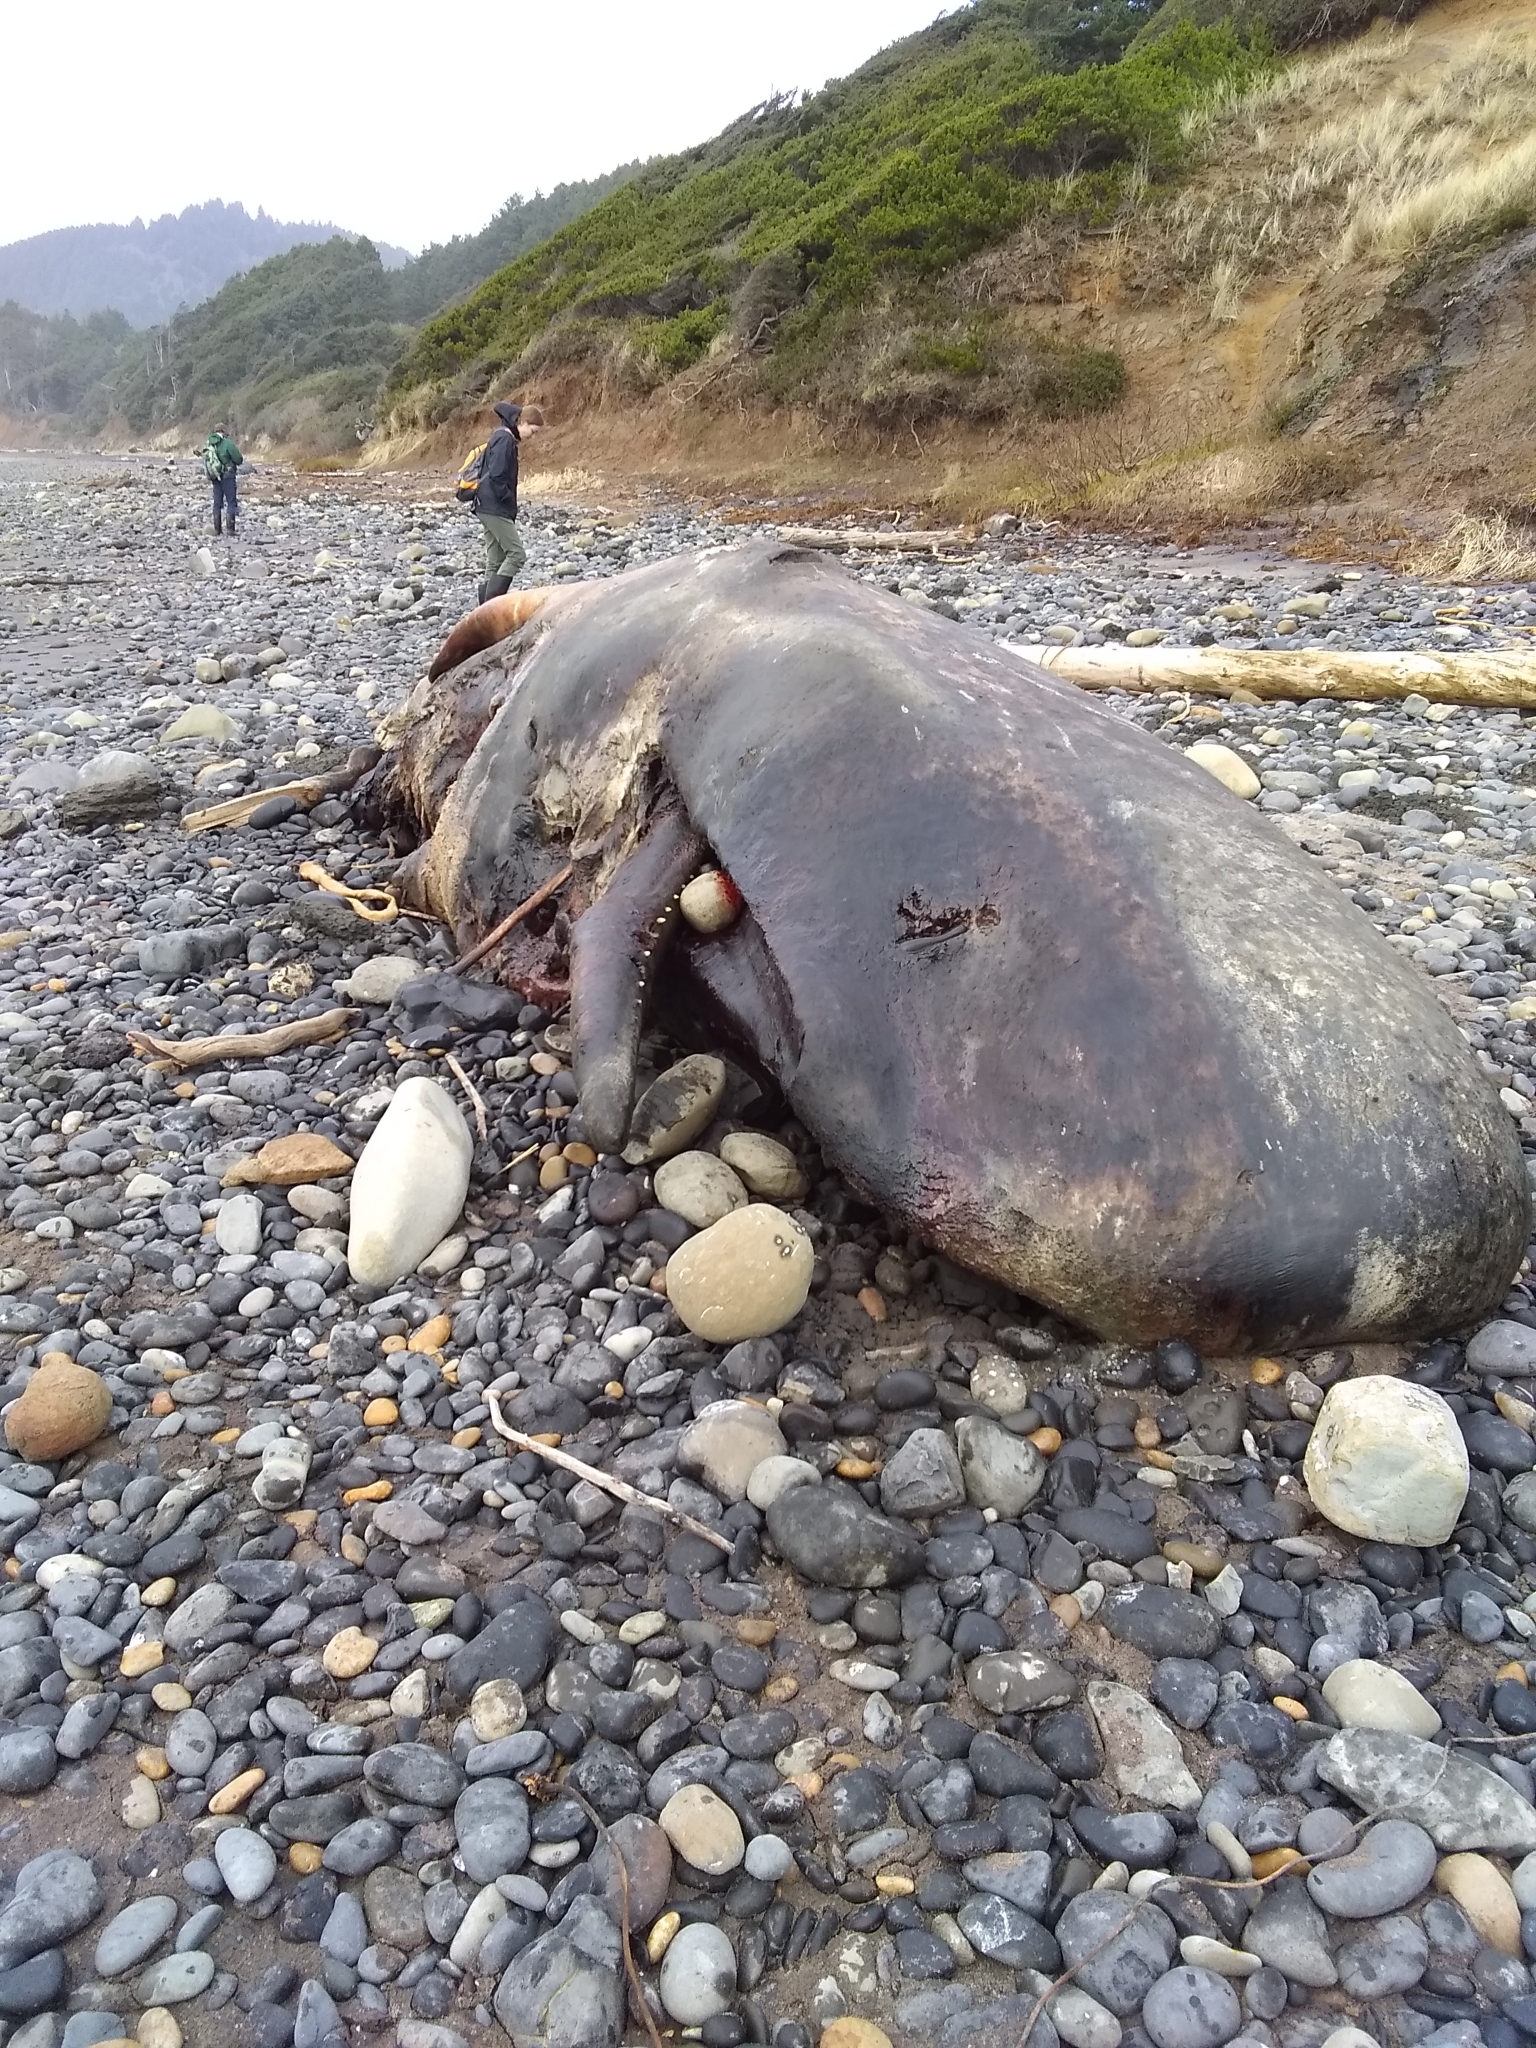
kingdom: Animalia
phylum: Chordata
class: Mammalia
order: Cetacea
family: Physeteridae
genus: Physeter
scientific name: Physeter macrocephalus
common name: Sperm whale
